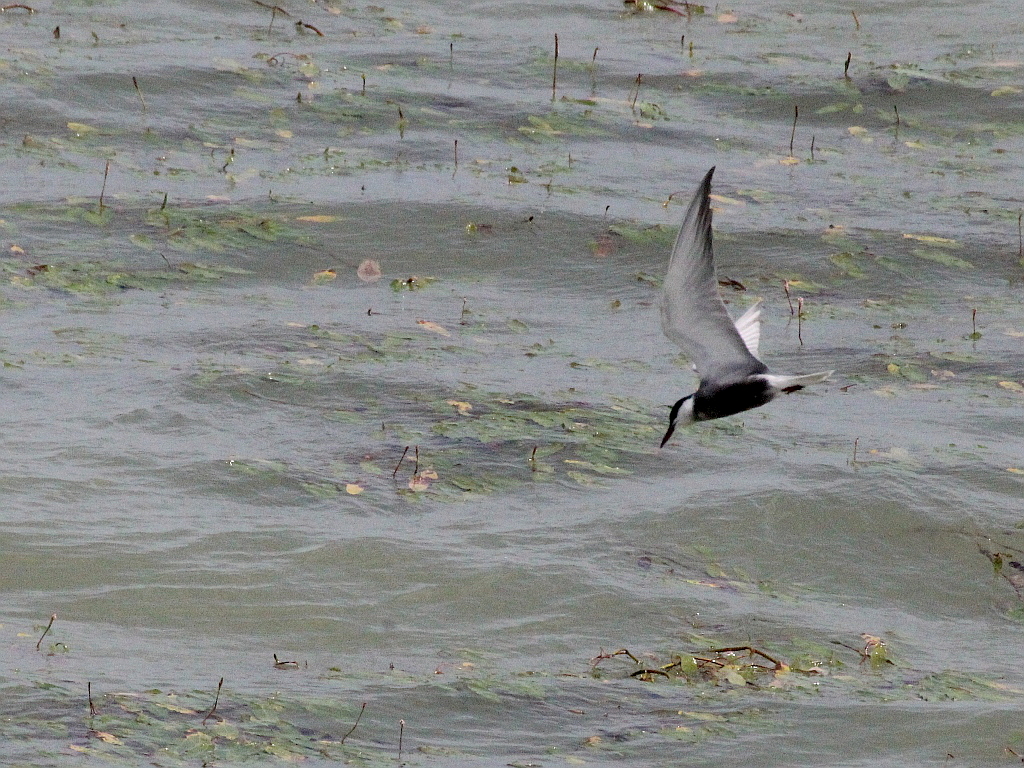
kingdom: Animalia
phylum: Chordata
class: Aves
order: Charadriiformes
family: Laridae
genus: Chlidonias
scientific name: Chlidonias hybrida
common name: Whiskered tern
